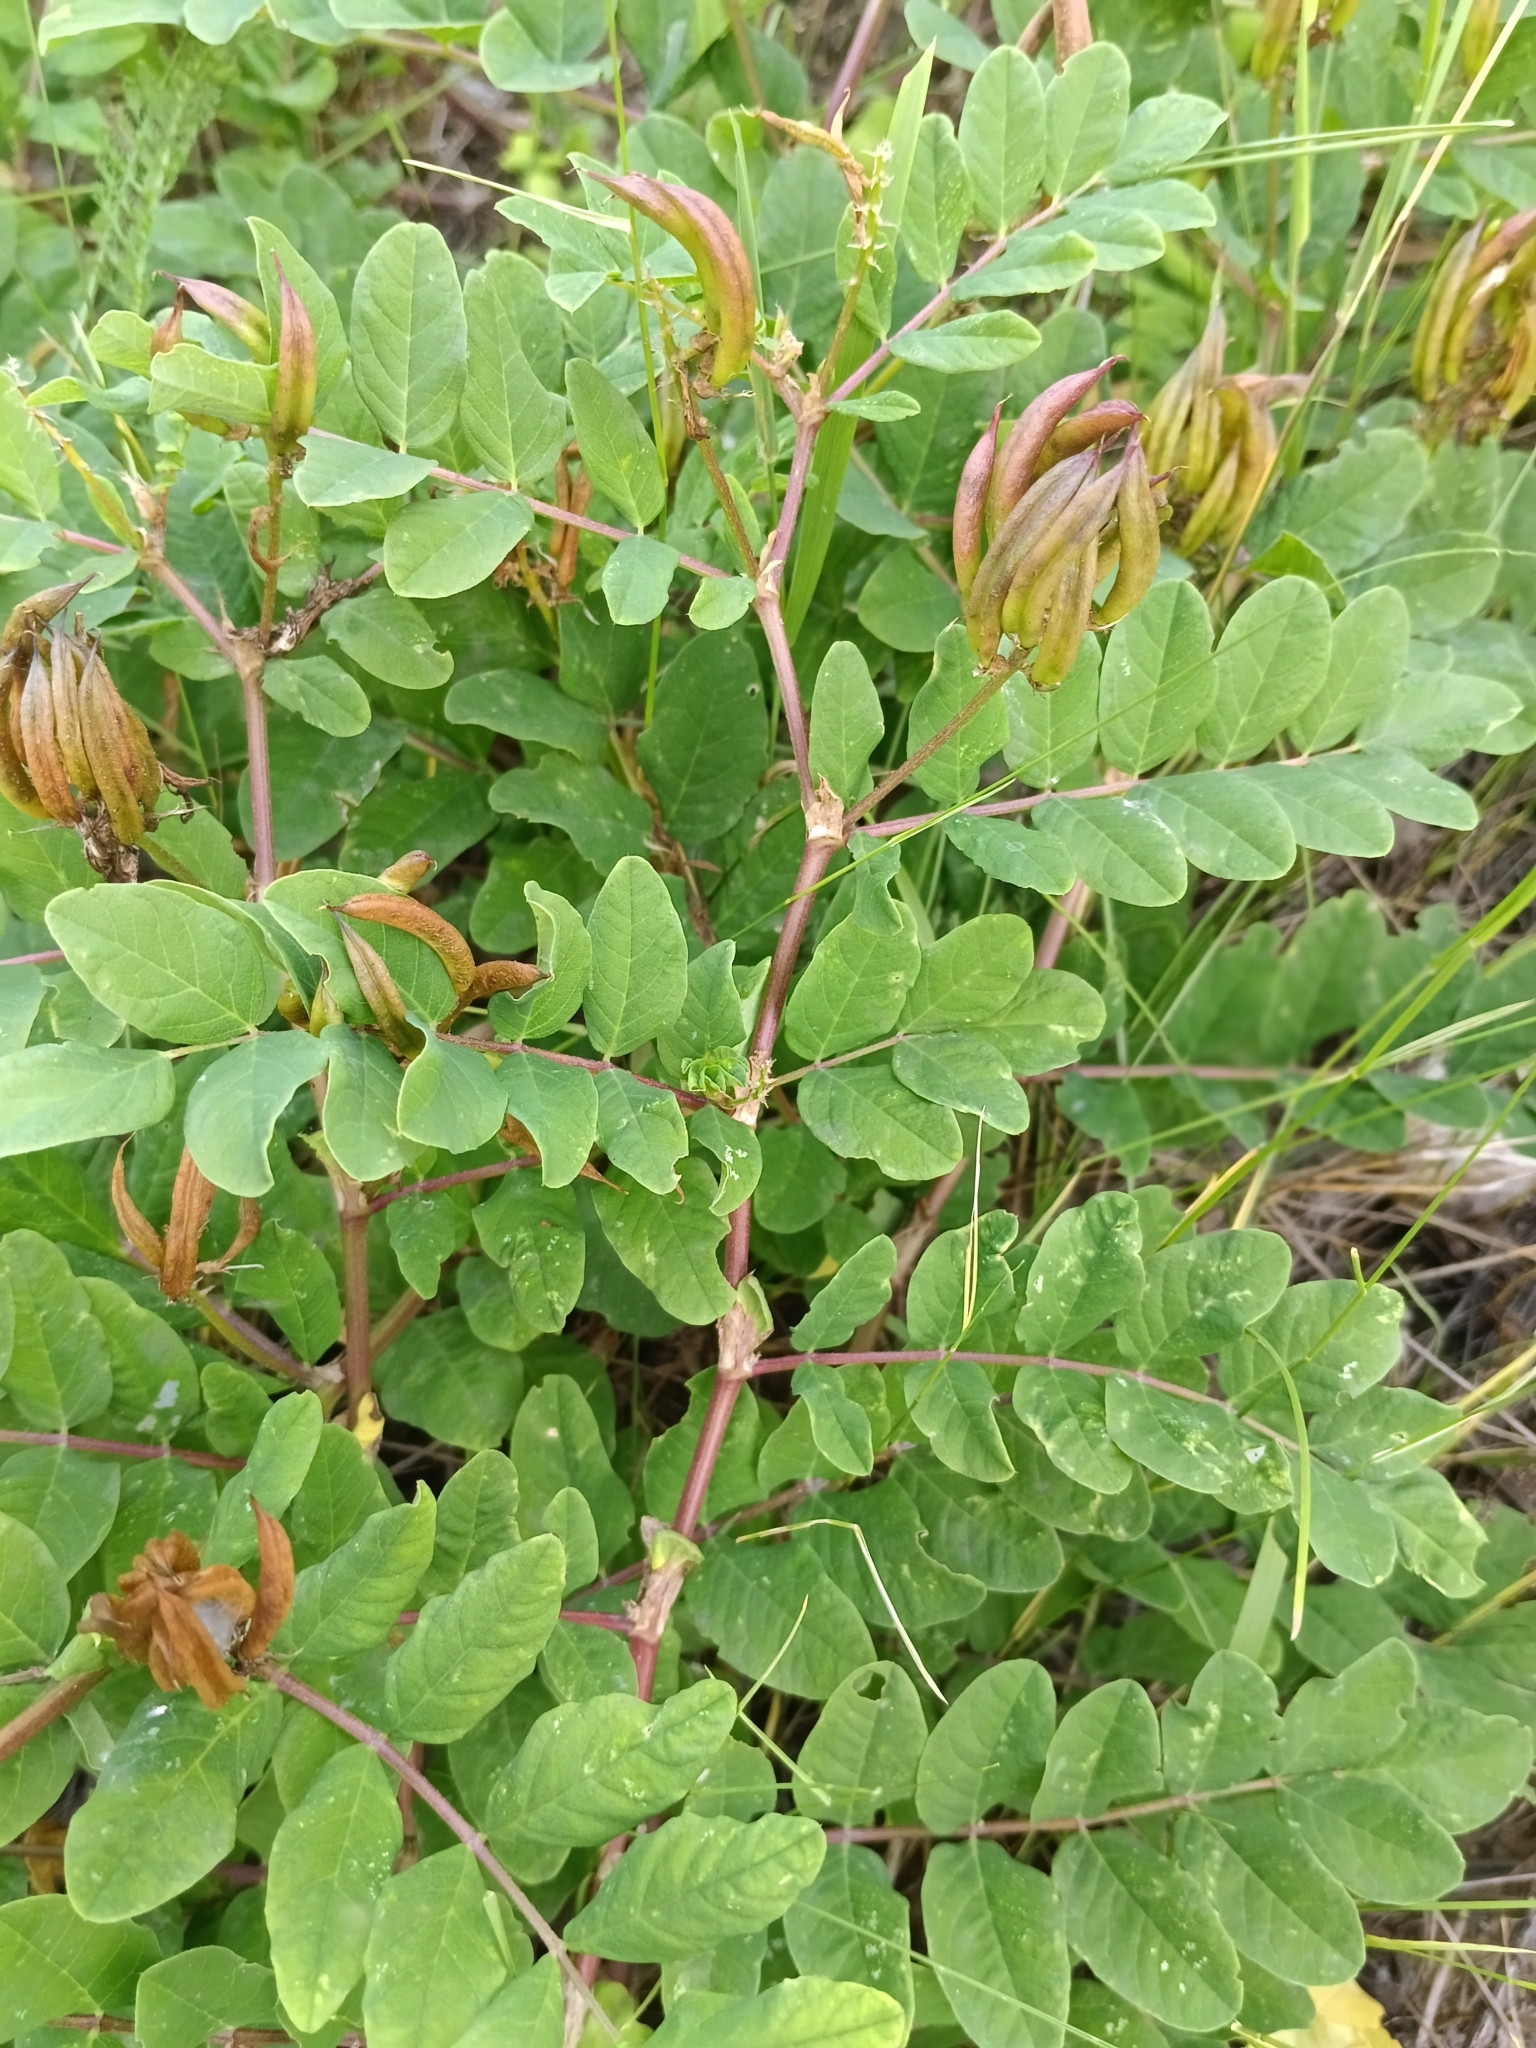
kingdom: Plantae
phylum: Tracheophyta
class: Magnoliopsida
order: Fabales
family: Fabaceae
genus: Astragalus
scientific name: Astragalus glycyphyllos
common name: Wild liquorice
